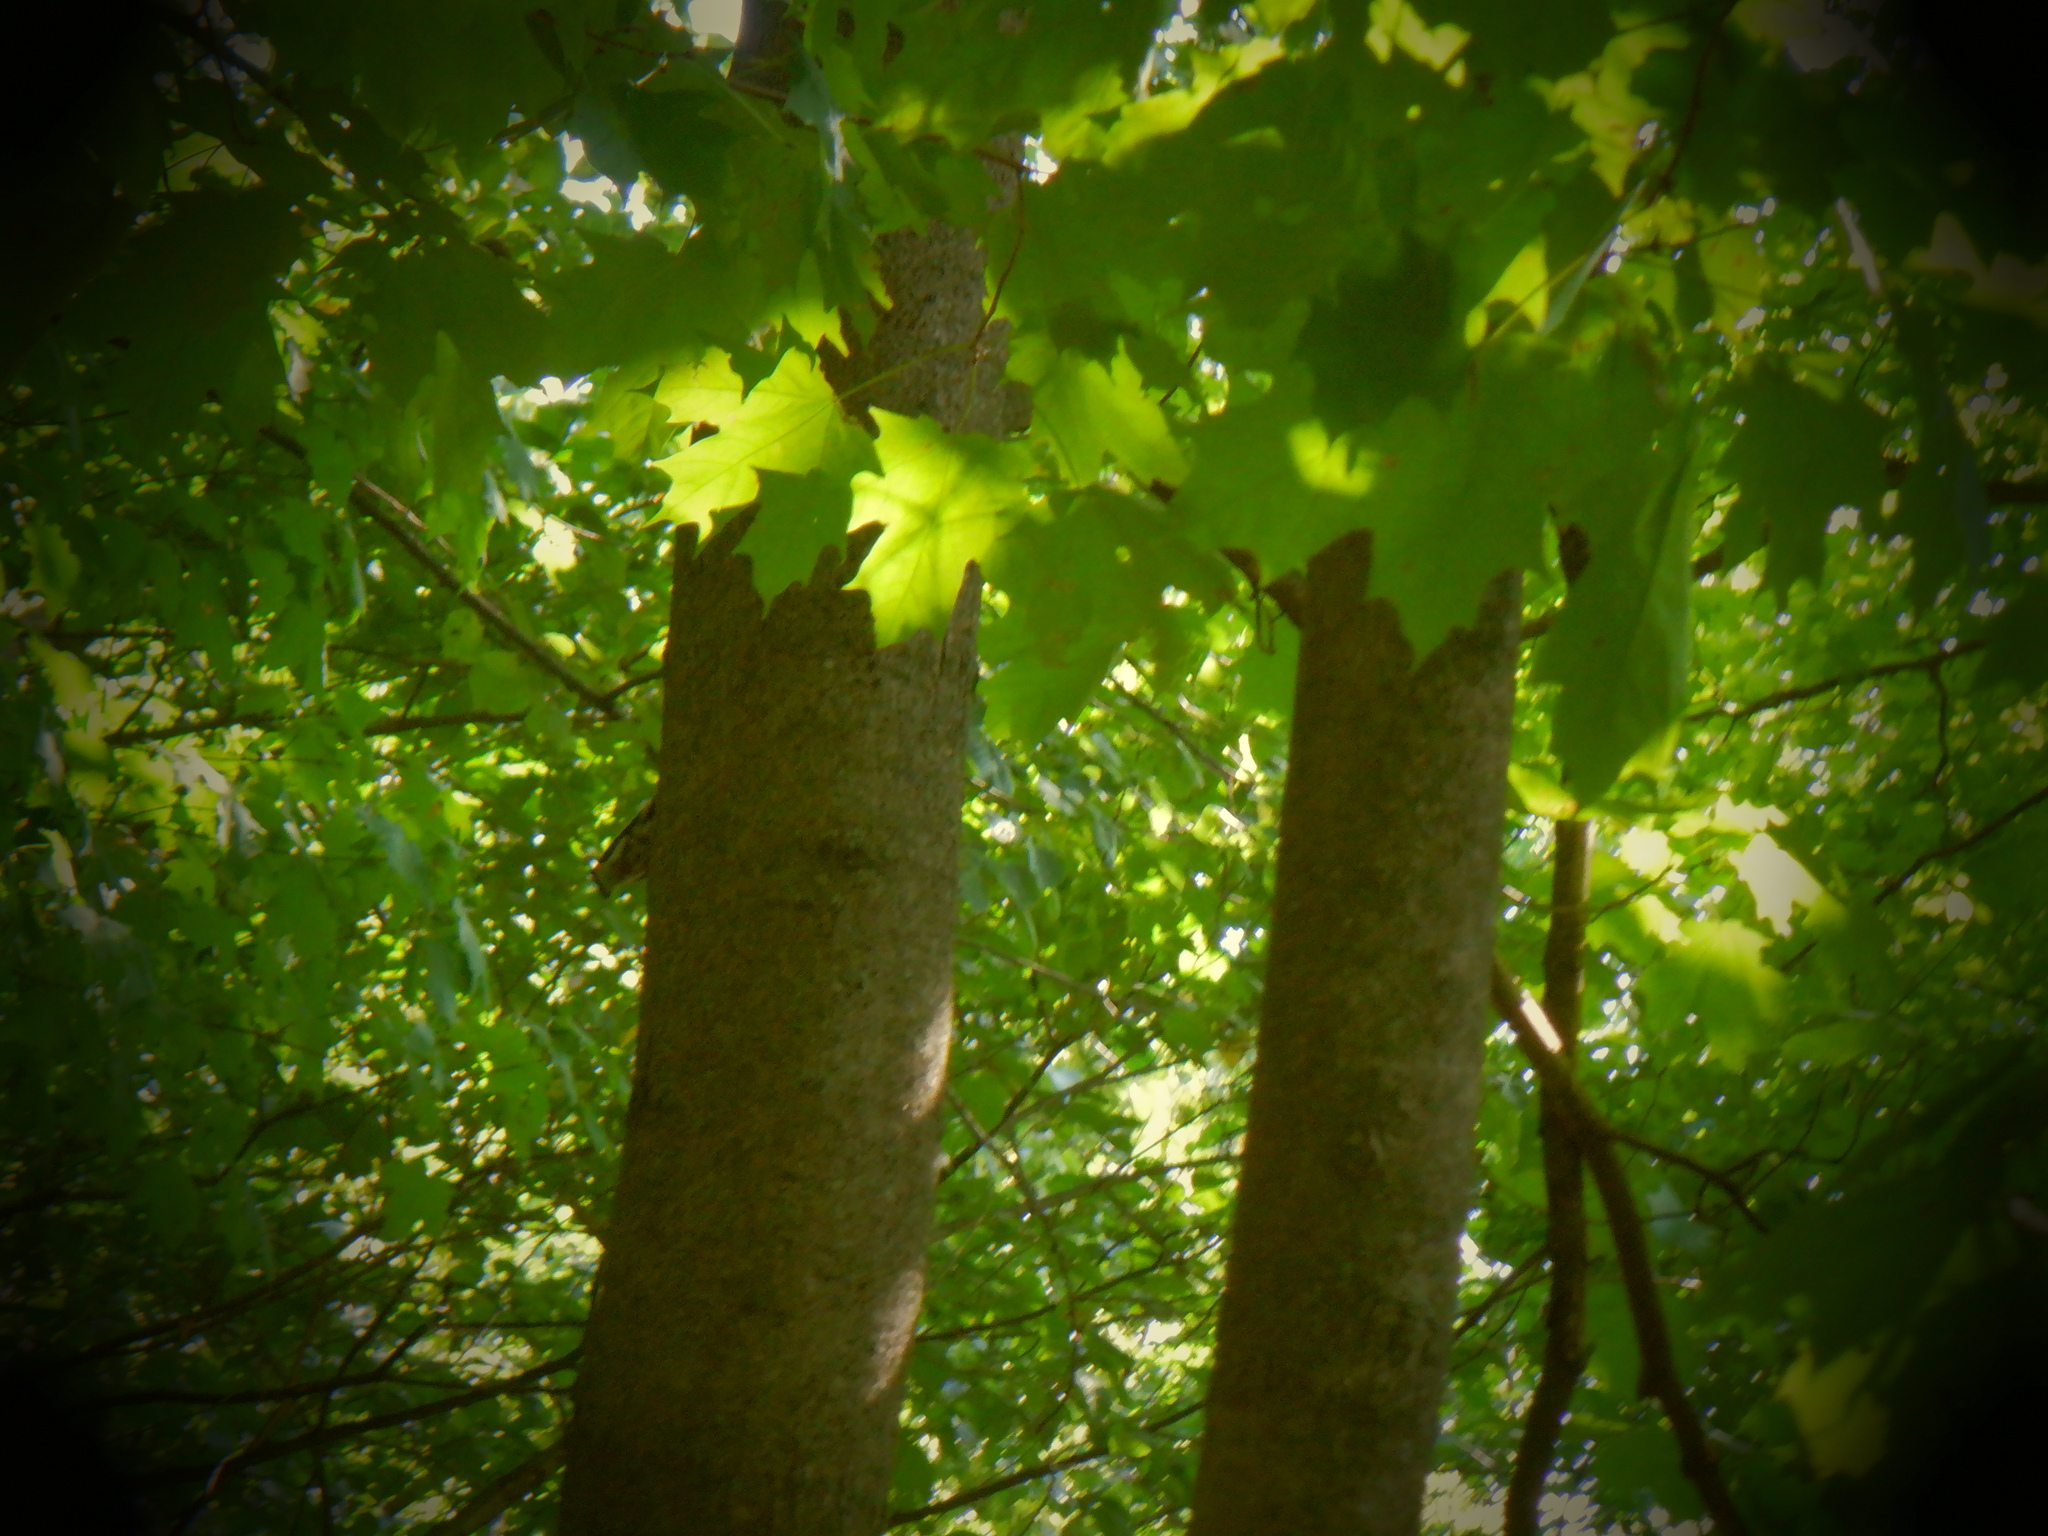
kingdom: Animalia
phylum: Chordata
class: Aves
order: Passeriformes
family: Sittidae
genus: Sitta
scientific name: Sitta carolinensis
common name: White-breasted nuthatch
